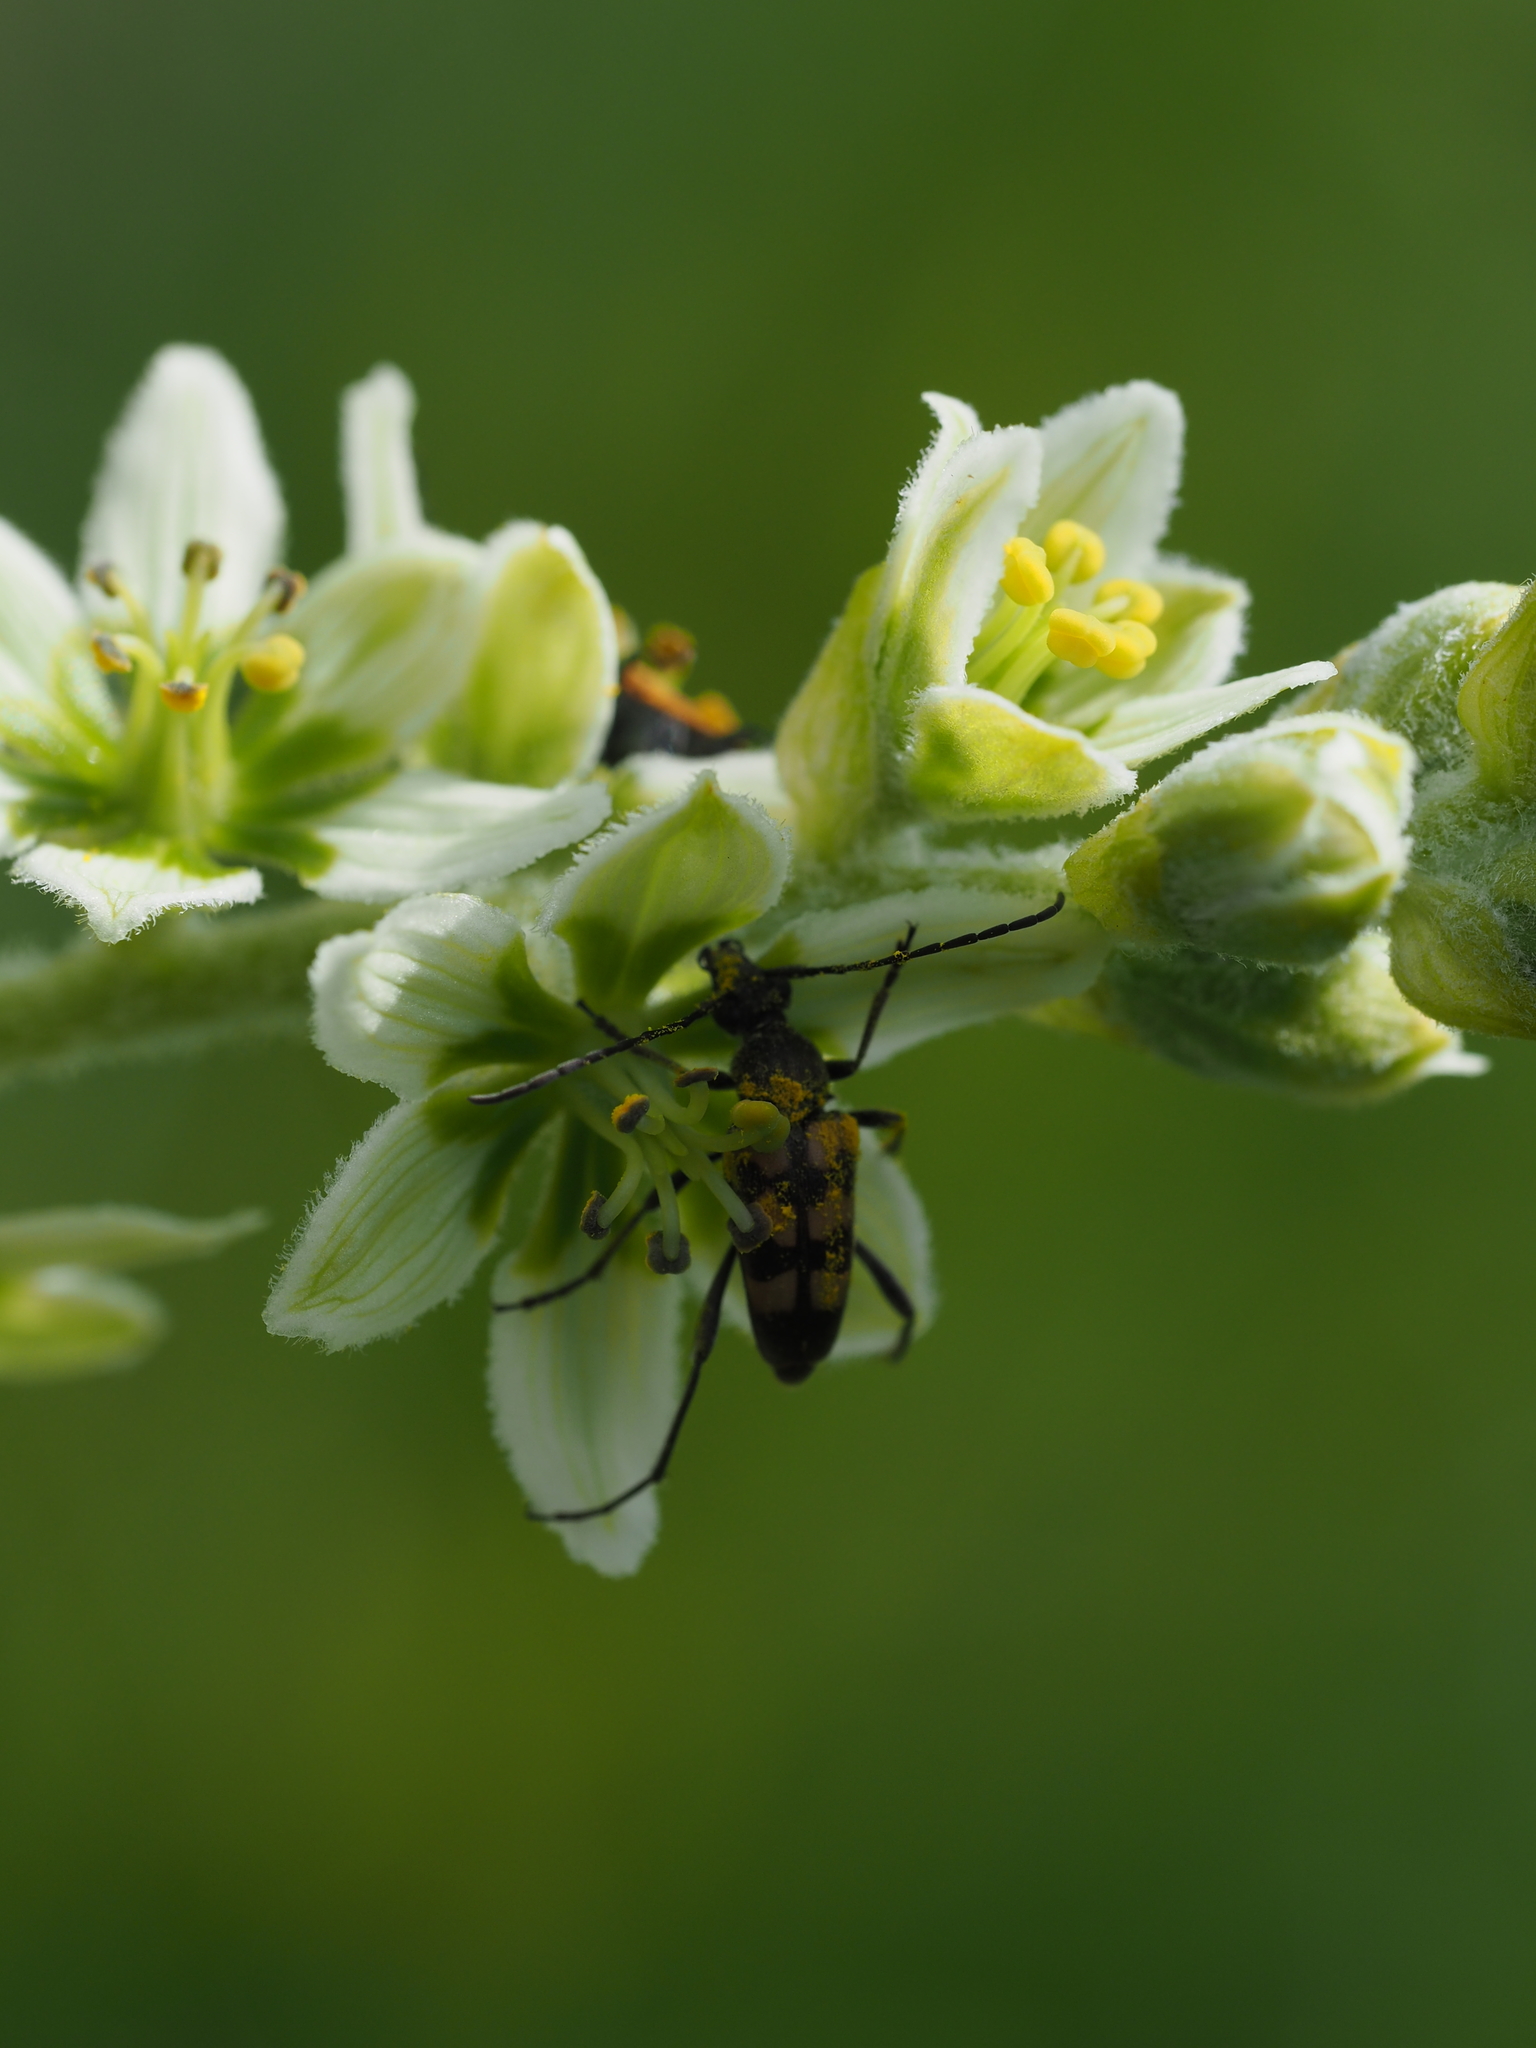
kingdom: Animalia
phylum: Arthropoda
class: Insecta
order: Coleoptera
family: Cerambycidae
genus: Pachytodes
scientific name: Pachytodes
